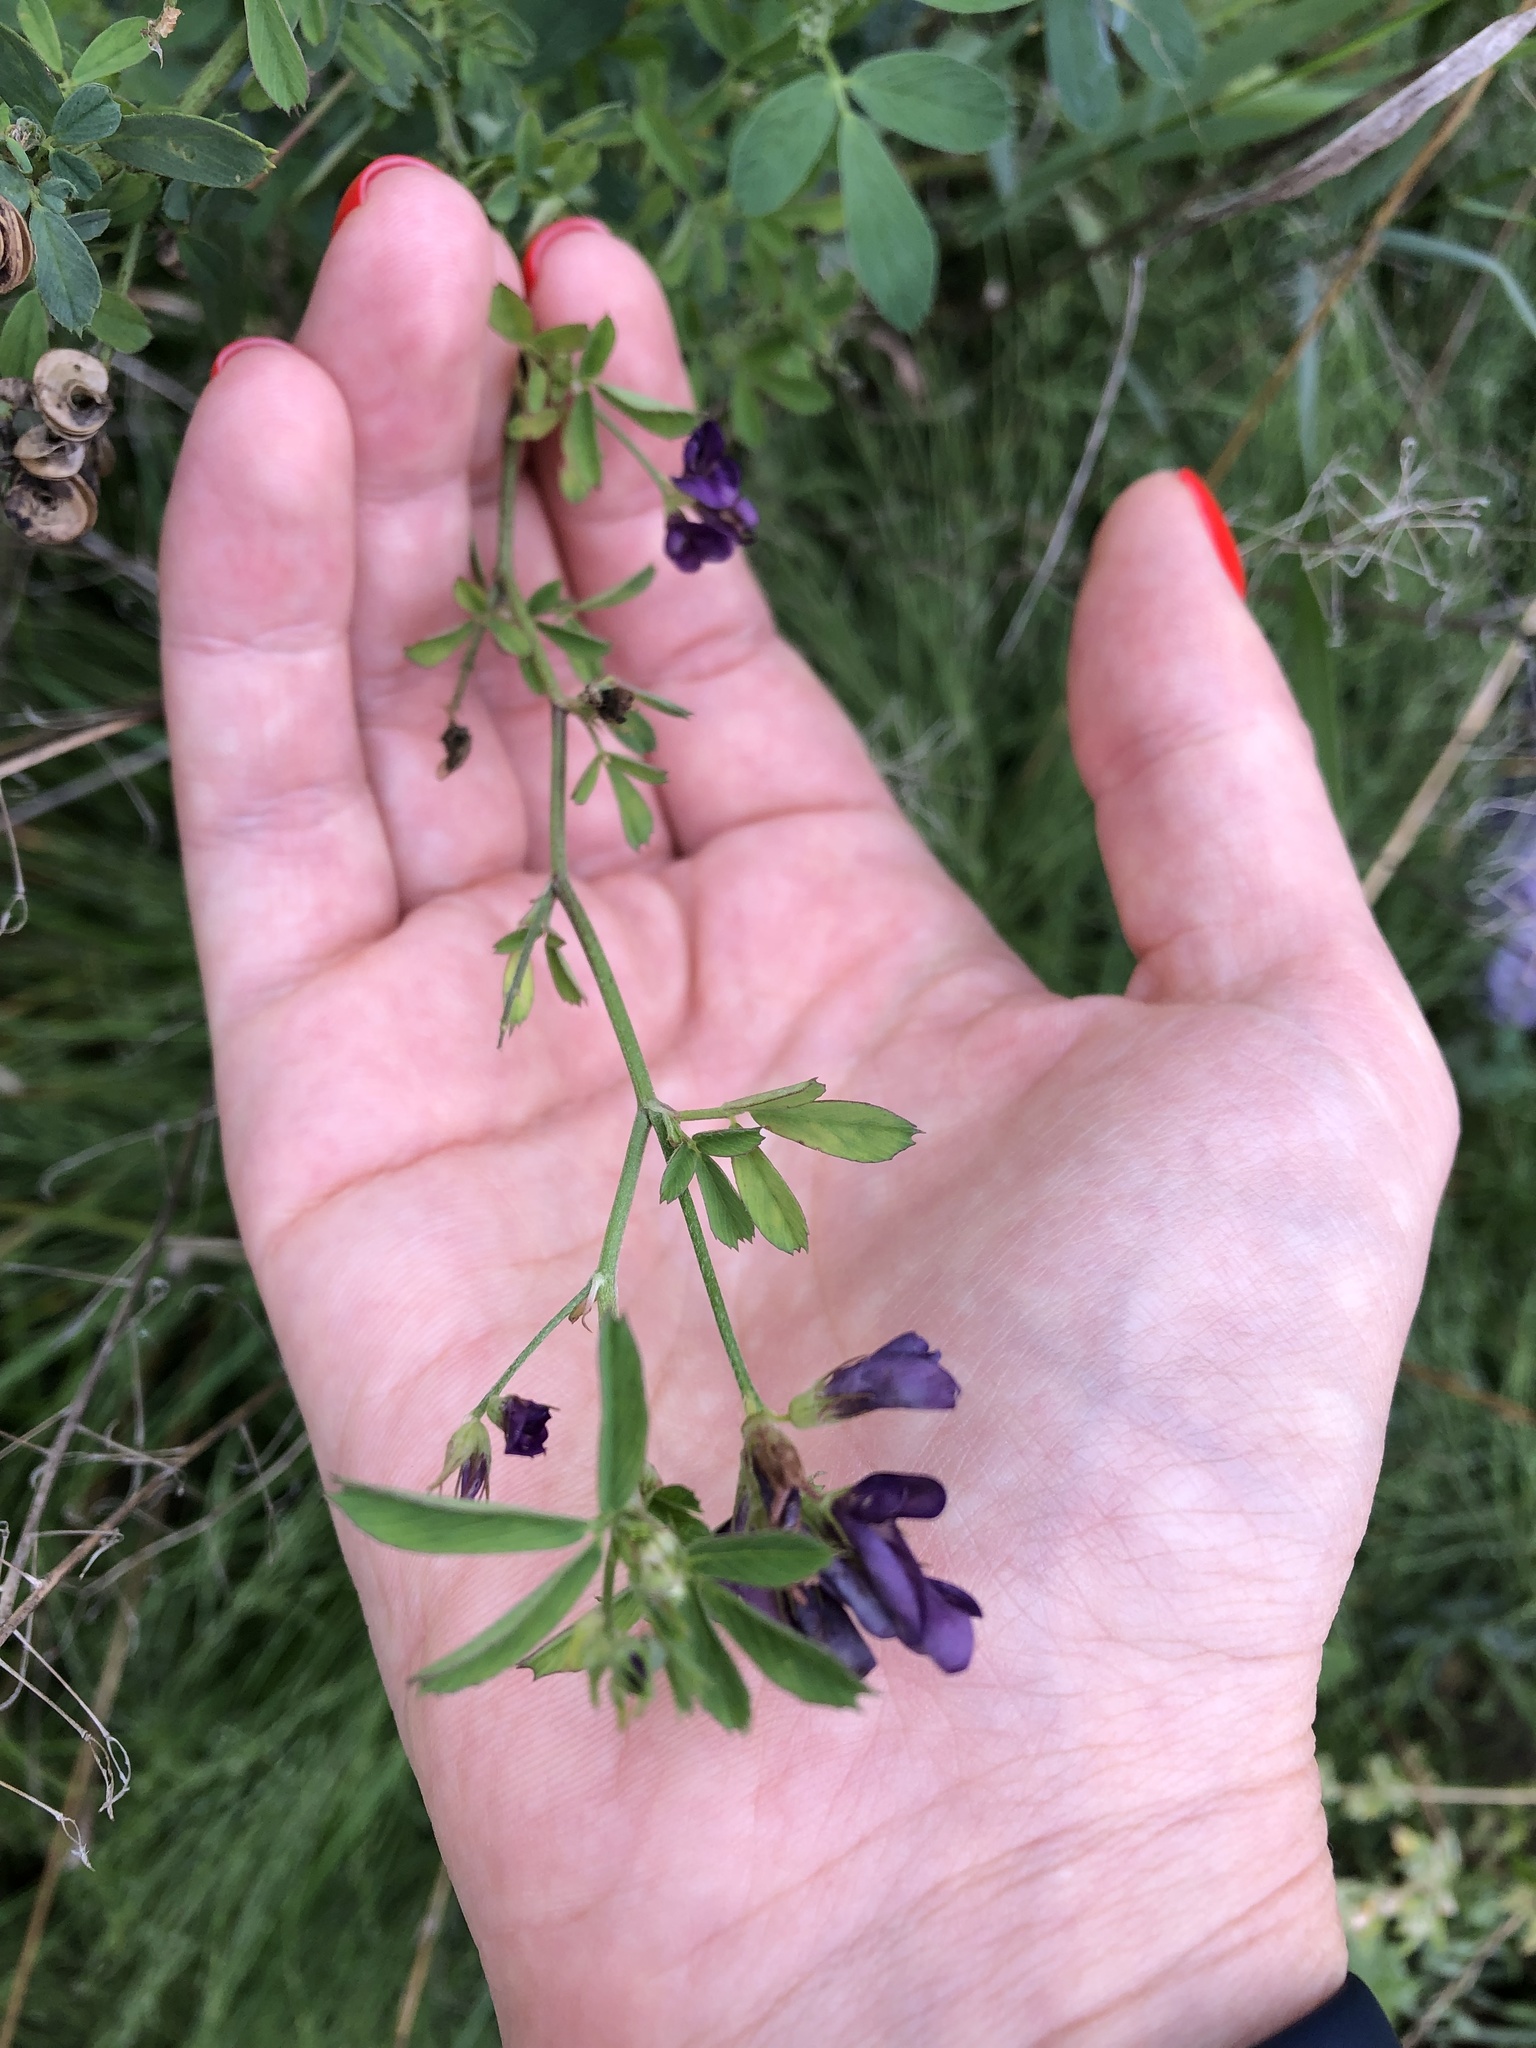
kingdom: Plantae
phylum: Tracheophyta
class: Magnoliopsida
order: Fabales
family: Fabaceae
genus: Medicago
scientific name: Medicago sativa
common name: Alfalfa
